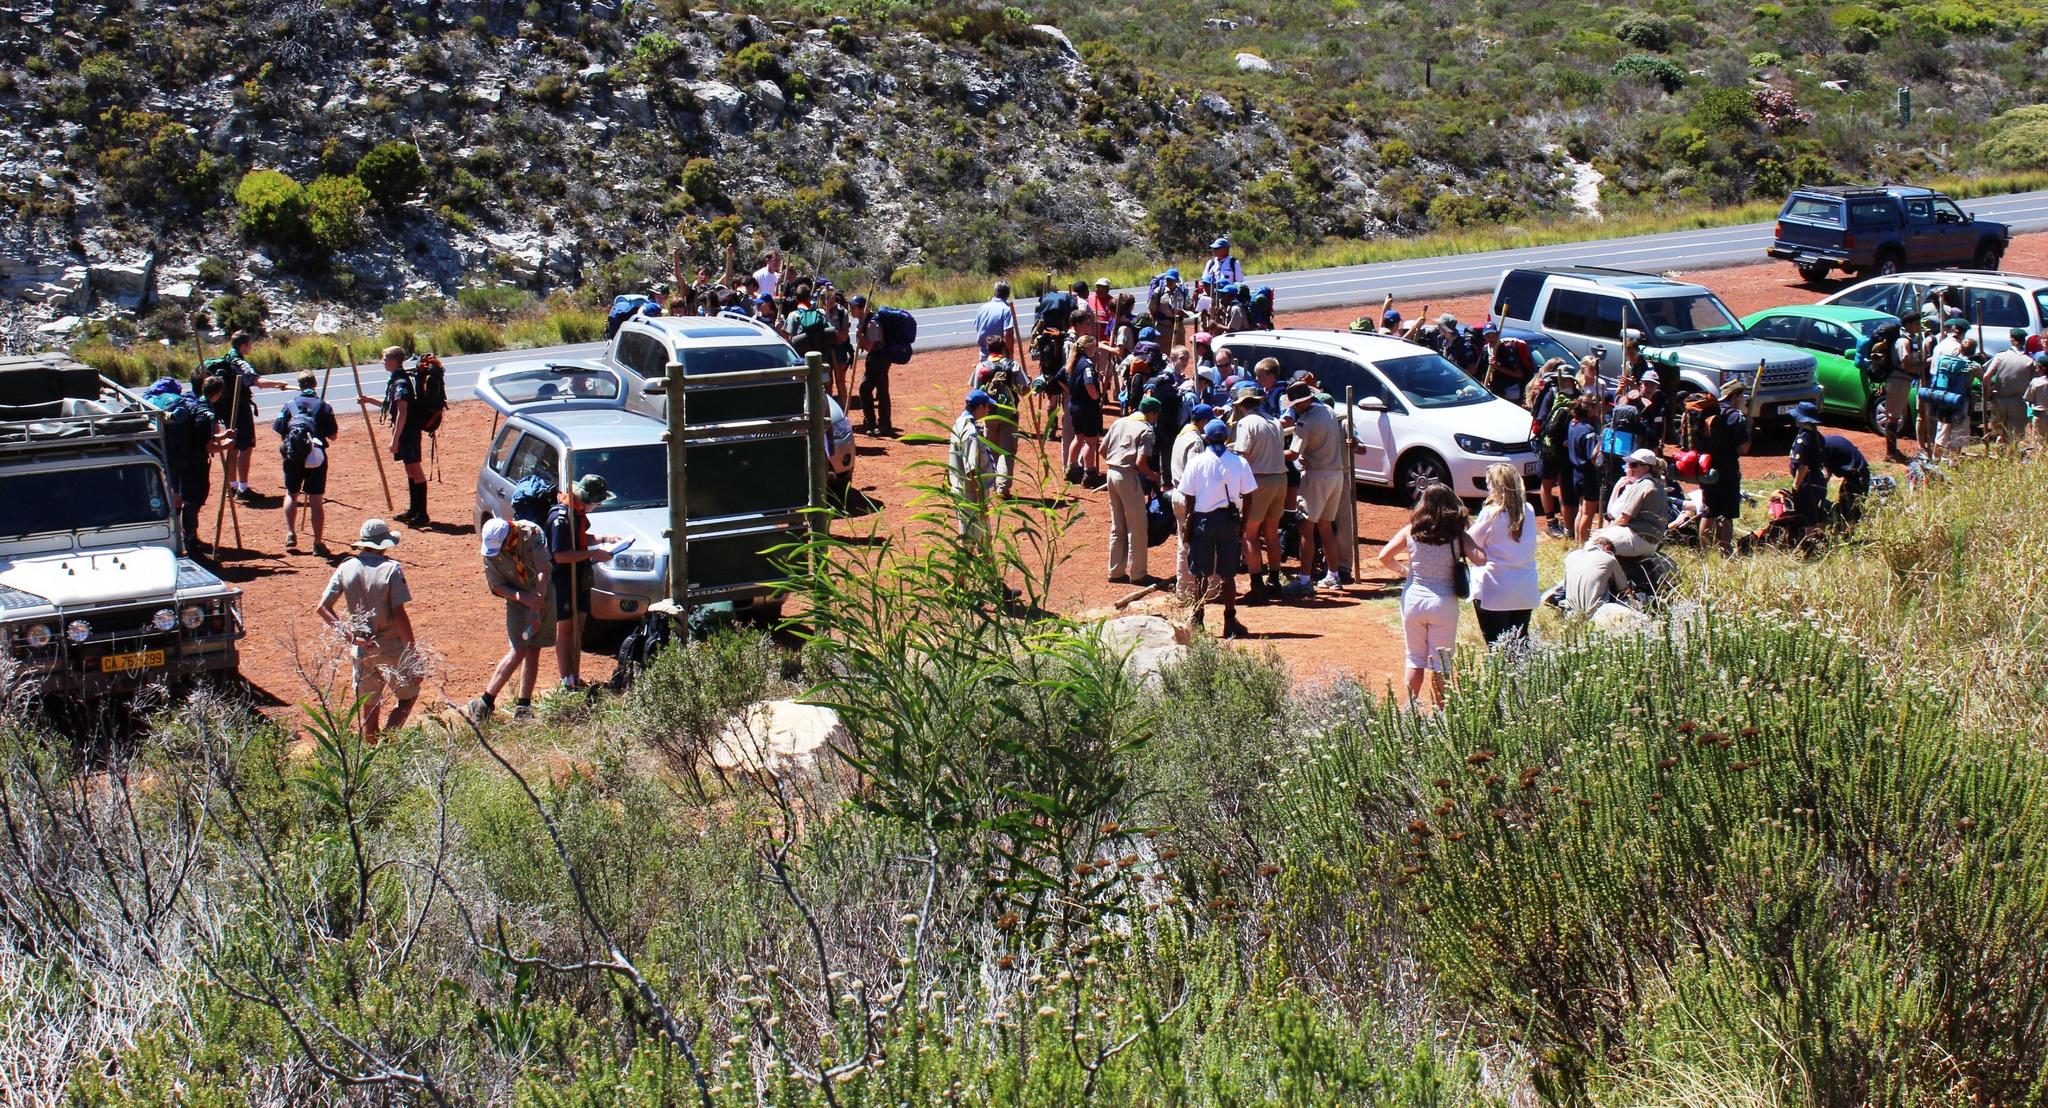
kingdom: Plantae
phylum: Tracheophyta
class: Magnoliopsida
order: Fabales
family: Fabaceae
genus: Acacia
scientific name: Acacia saligna
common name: Orange wattle
